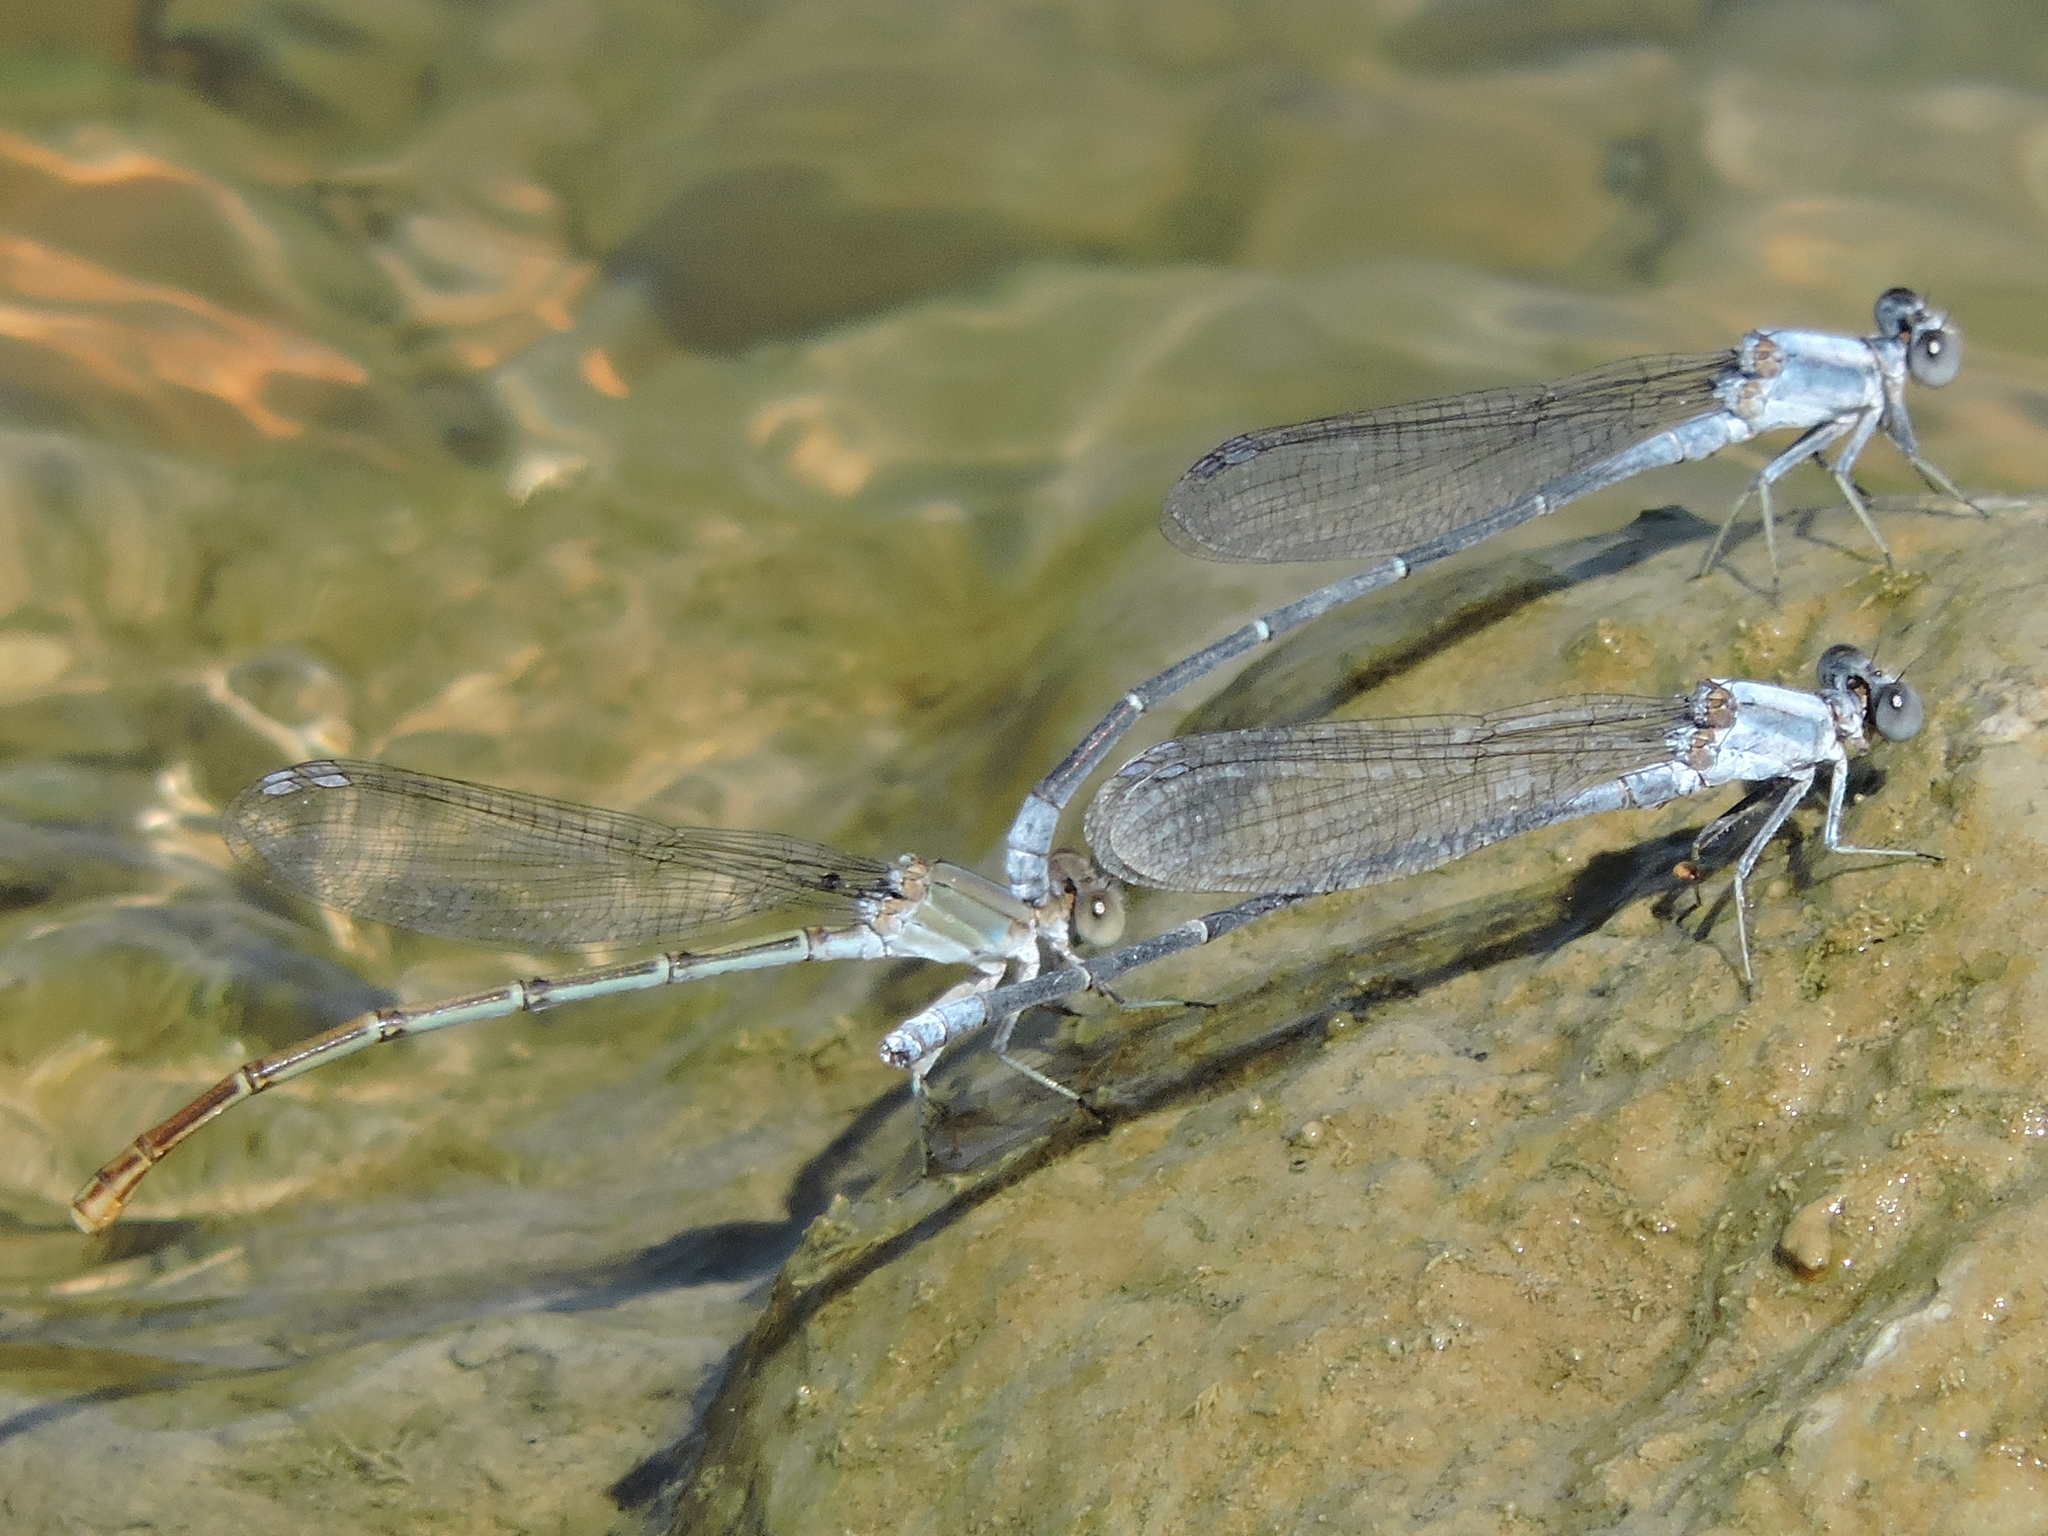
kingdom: Animalia
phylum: Arthropoda
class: Insecta
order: Odonata
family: Coenagrionidae
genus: Argia
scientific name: Argia moesta
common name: Powdered dancer
